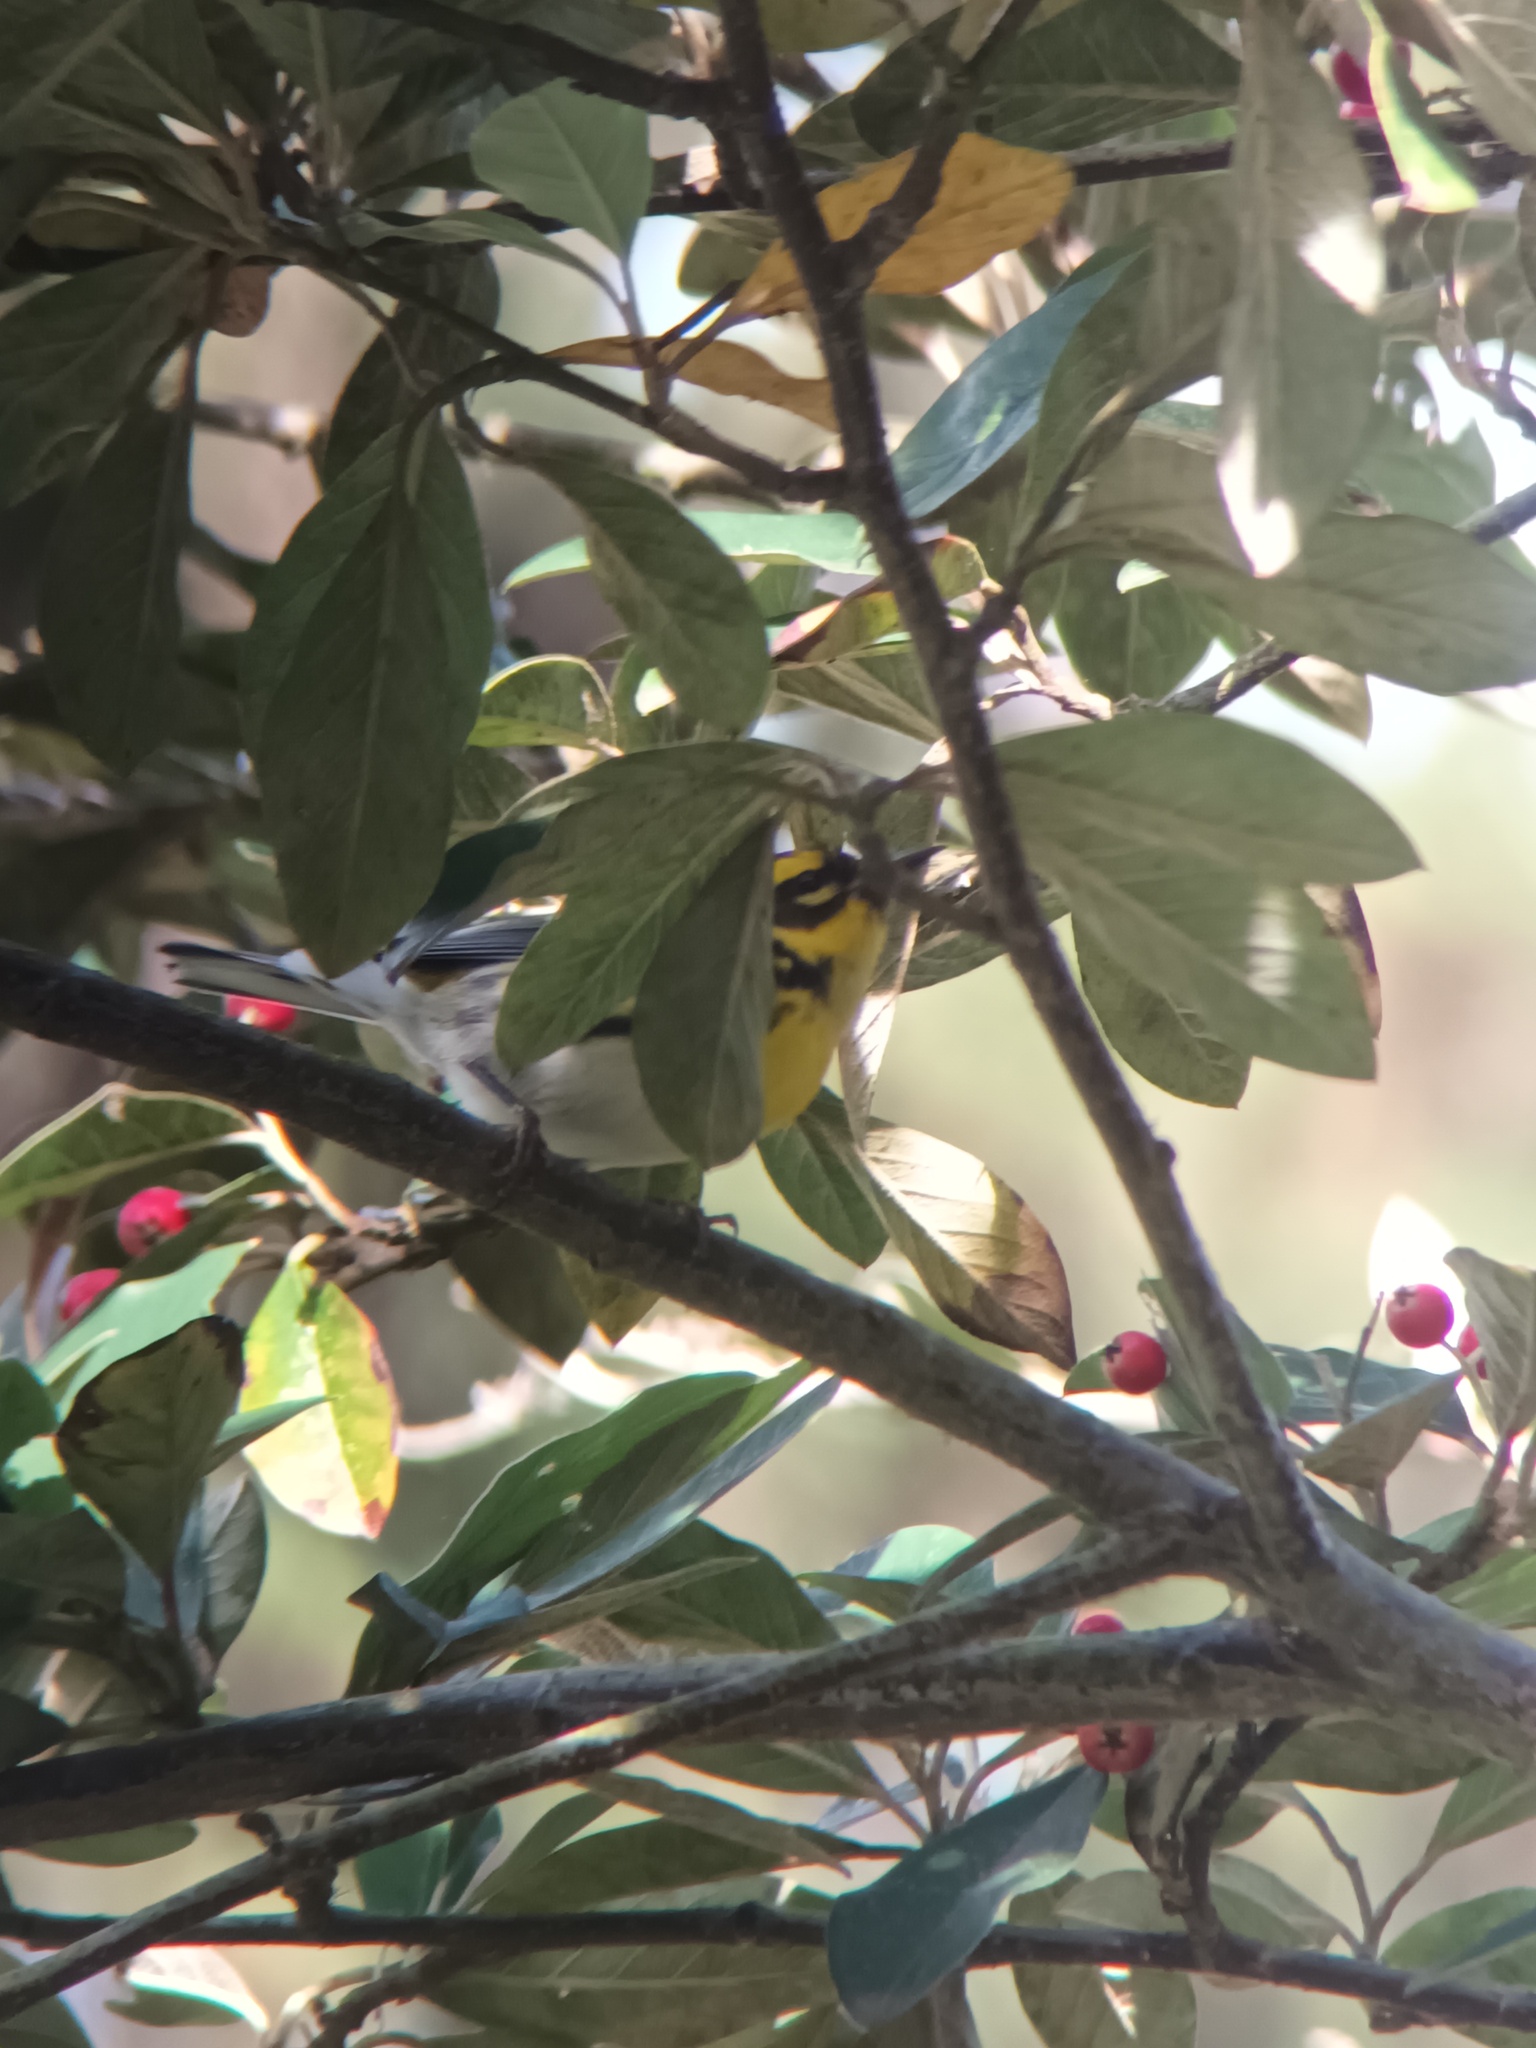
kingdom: Animalia
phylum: Chordata
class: Aves
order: Passeriformes
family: Parulidae
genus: Setophaga
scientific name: Setophaga townsendi
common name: Townsend's warbler
